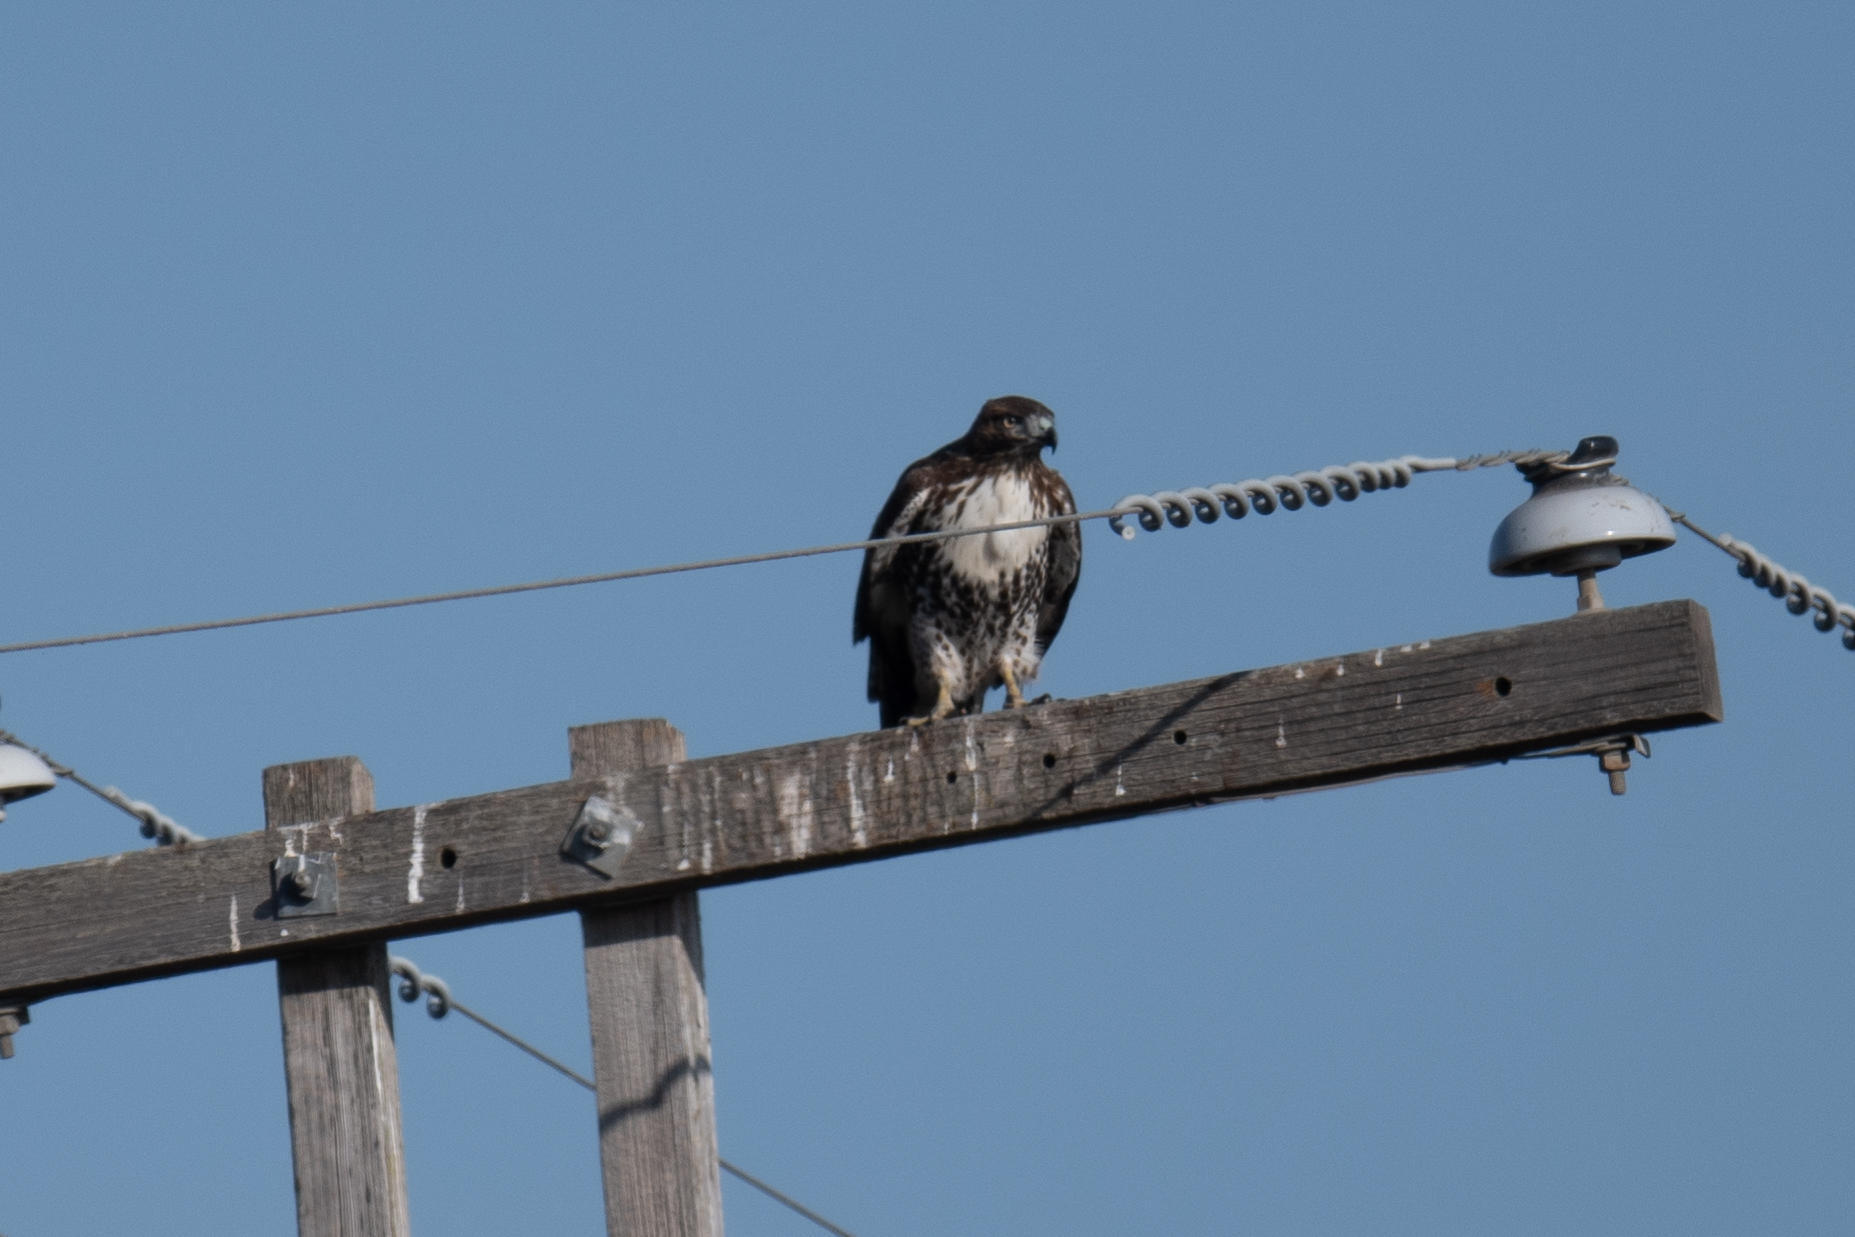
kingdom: Animalia
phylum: Chordata
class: Aves
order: Accipitriformes
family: Accipitridae
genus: Buteo
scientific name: Buteo jamaicensis
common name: Red-tailed hawk
